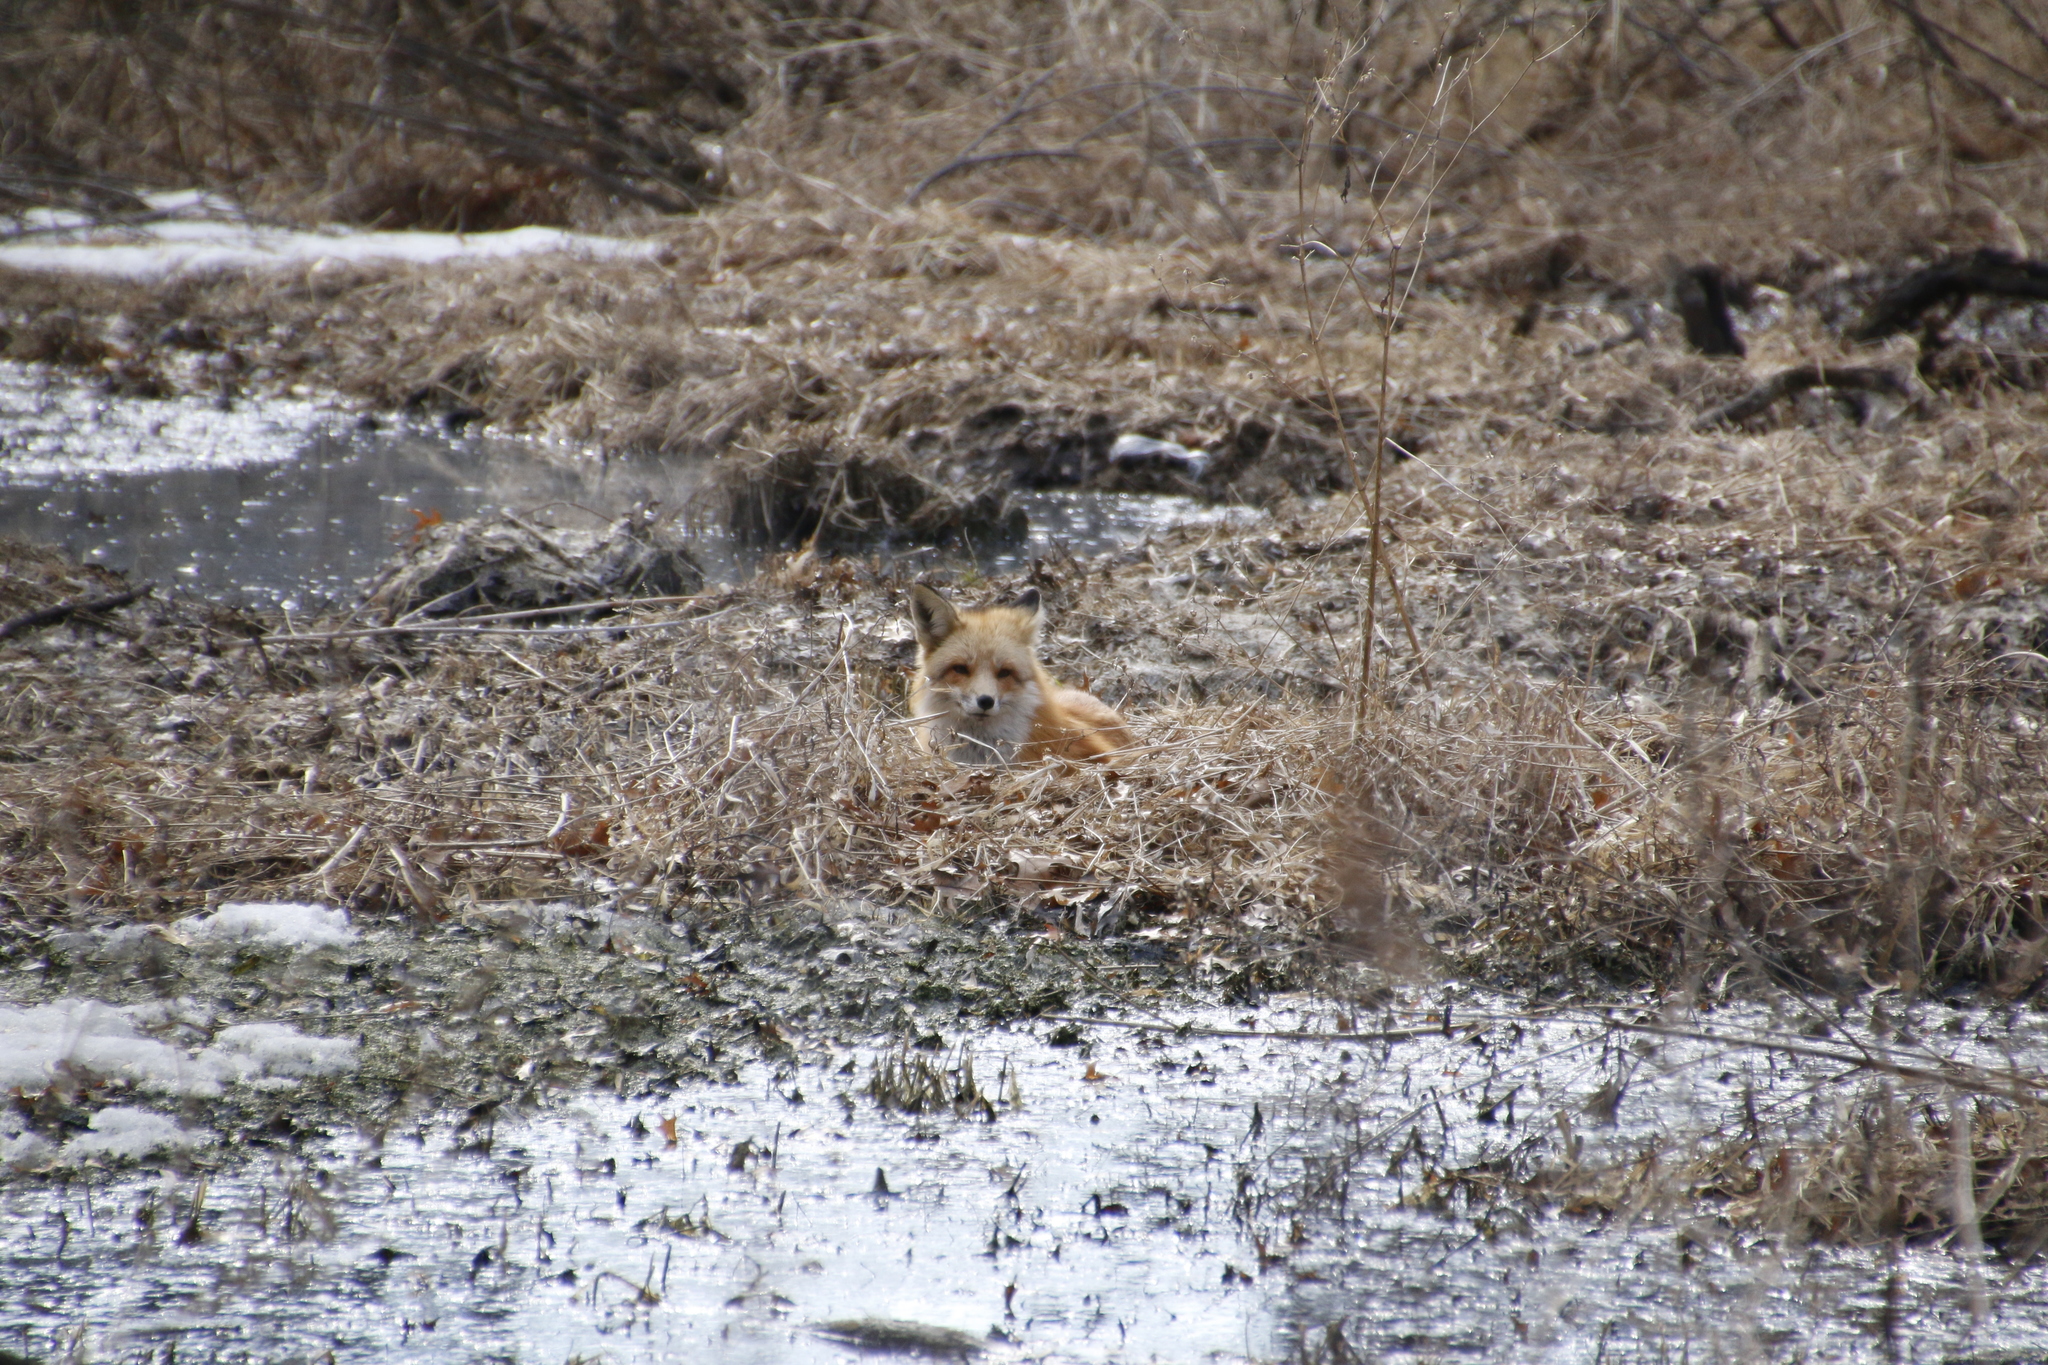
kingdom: Animalia
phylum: Chordata
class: Mammalia
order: Carnivora
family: Canidae
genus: Vulpes
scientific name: Vulpes vulpes
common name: Red fox
